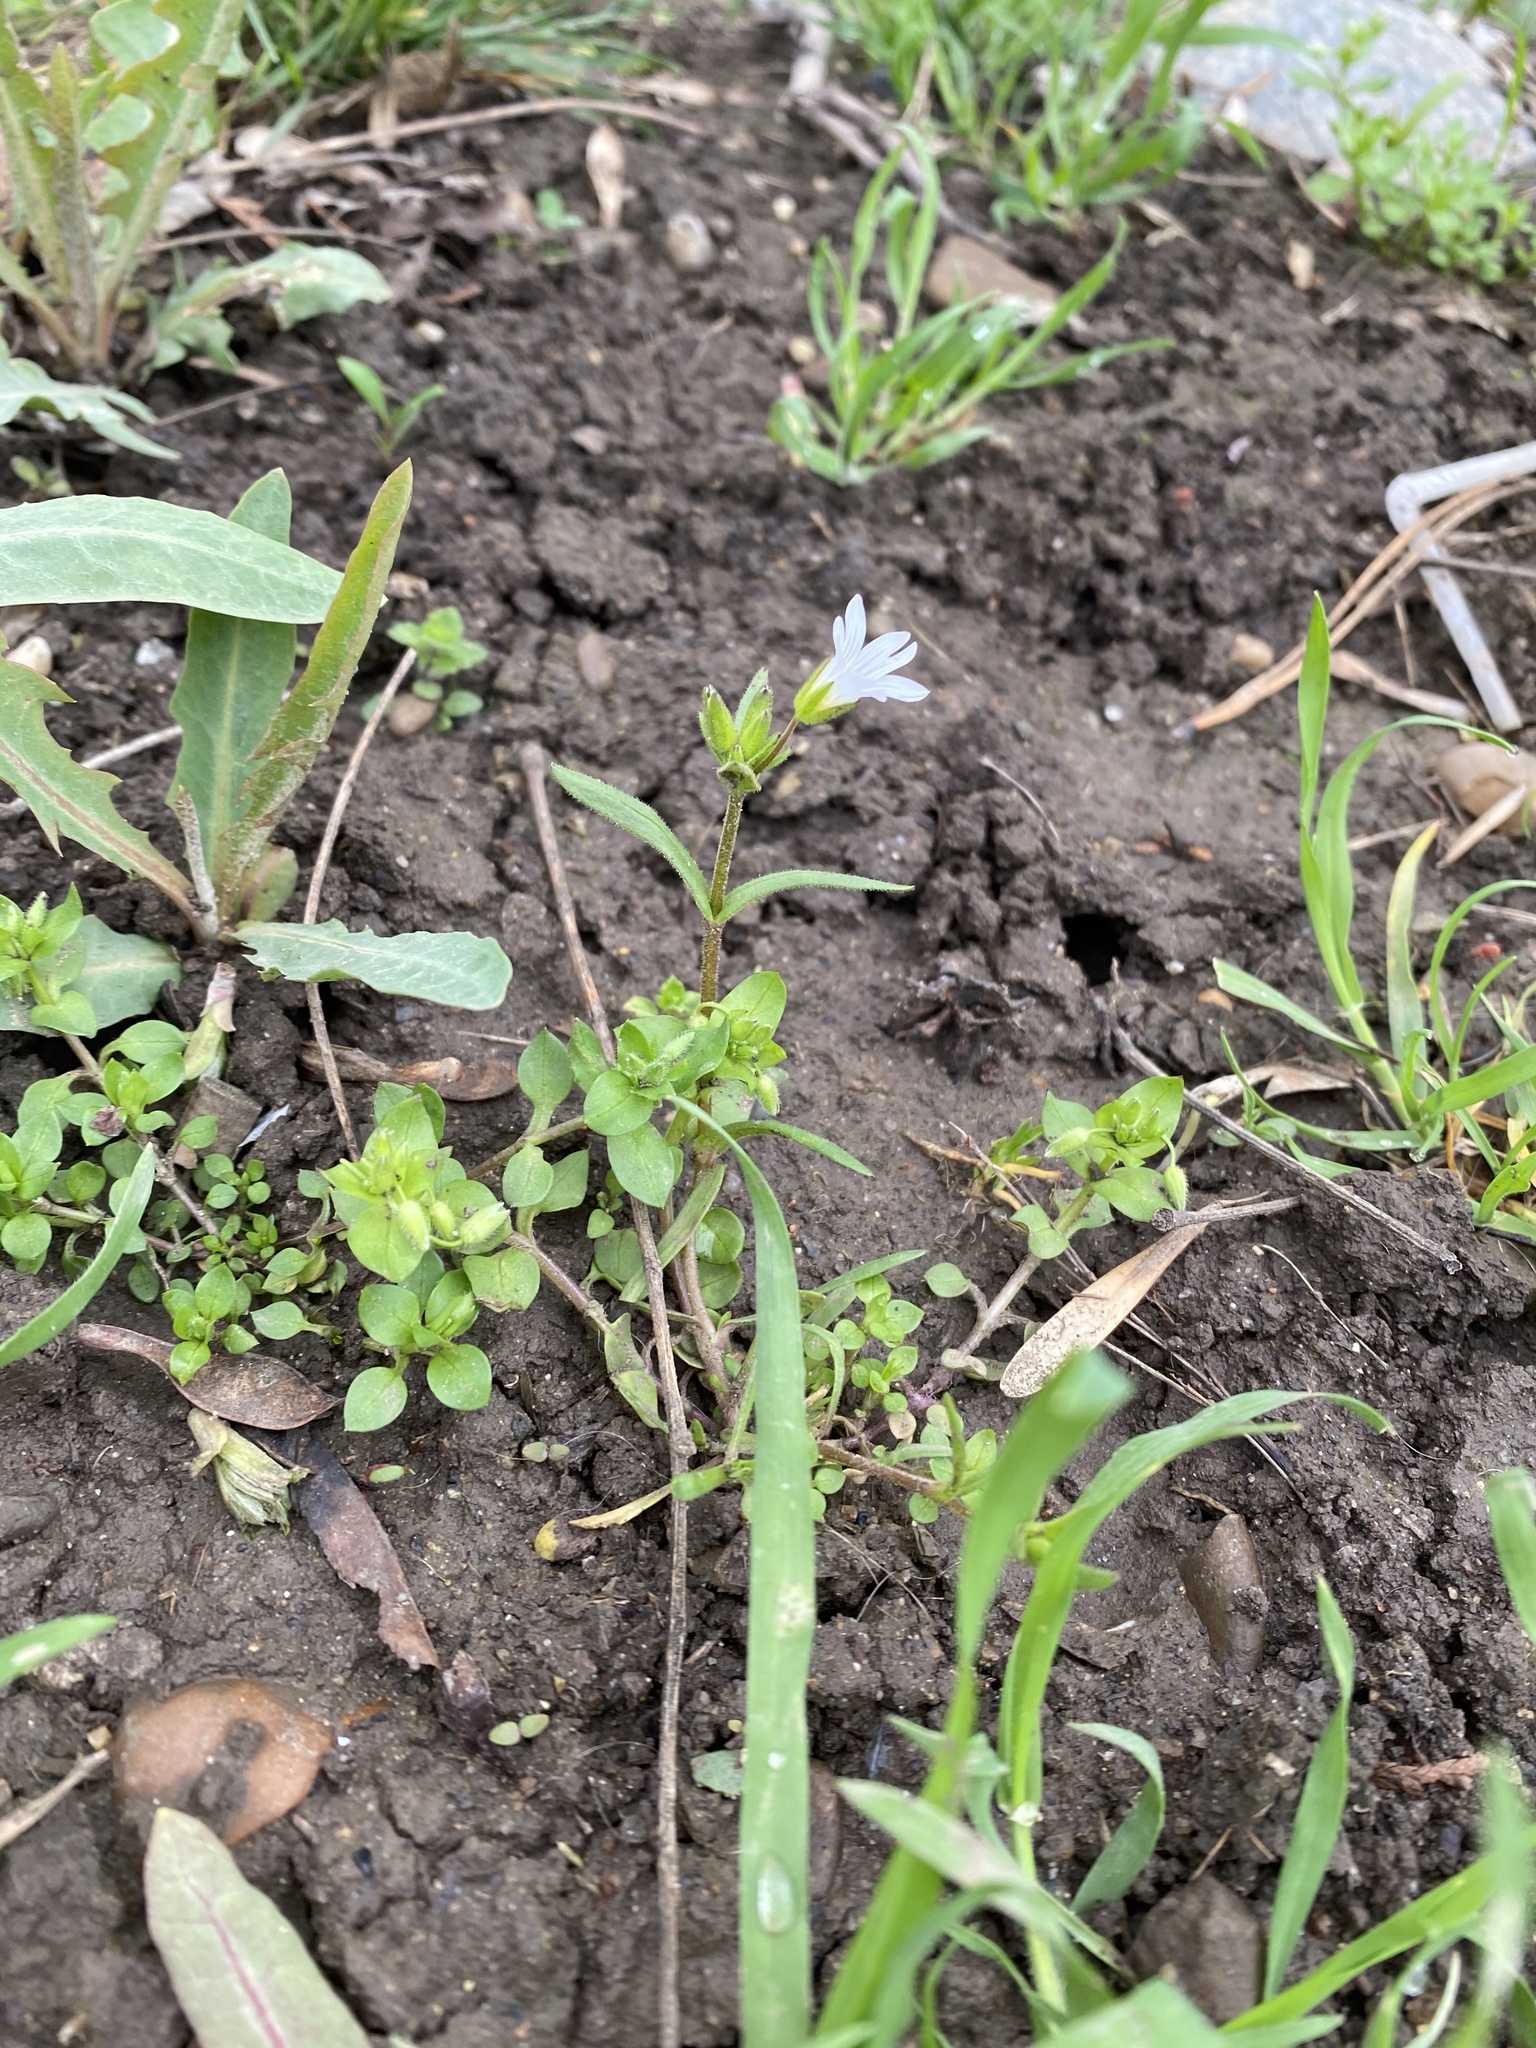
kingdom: Plantae
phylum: Tracheophyta
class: Magnoliopsida
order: Caryophyllales
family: Caryophyllaceae
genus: Dichodon
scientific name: Dichodon viscidum
